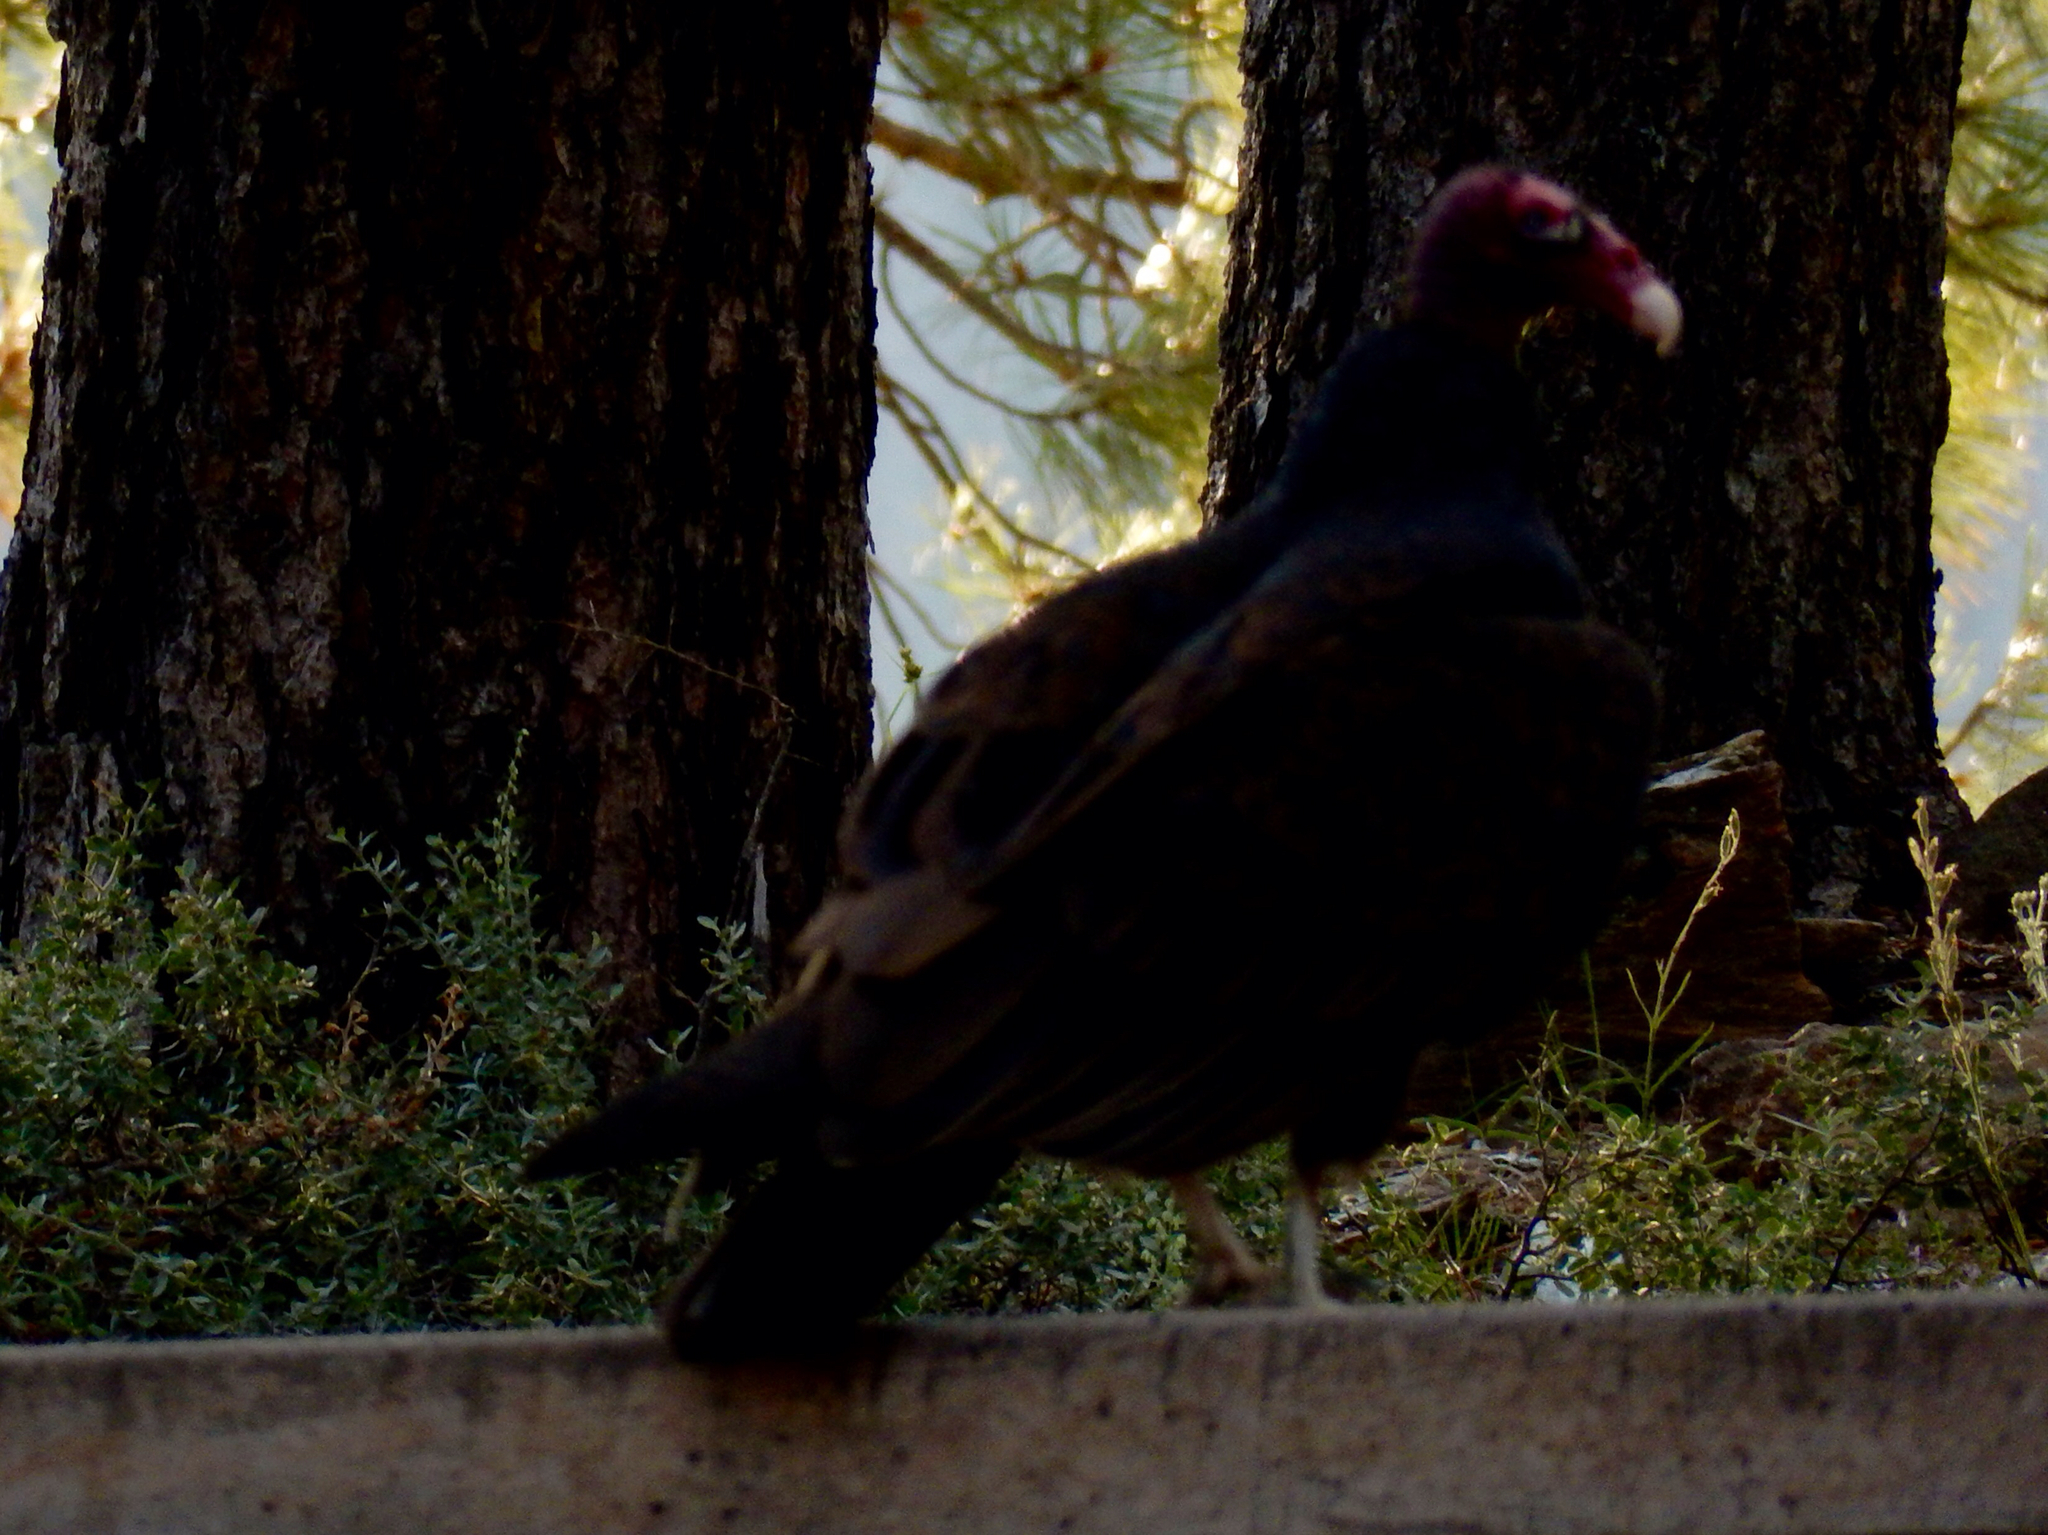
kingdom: Animalia
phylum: Chordata
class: Aves
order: Accipitriformes
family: Cathartidae
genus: Cathartes
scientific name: Cathartes aura
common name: Turkey vulture
